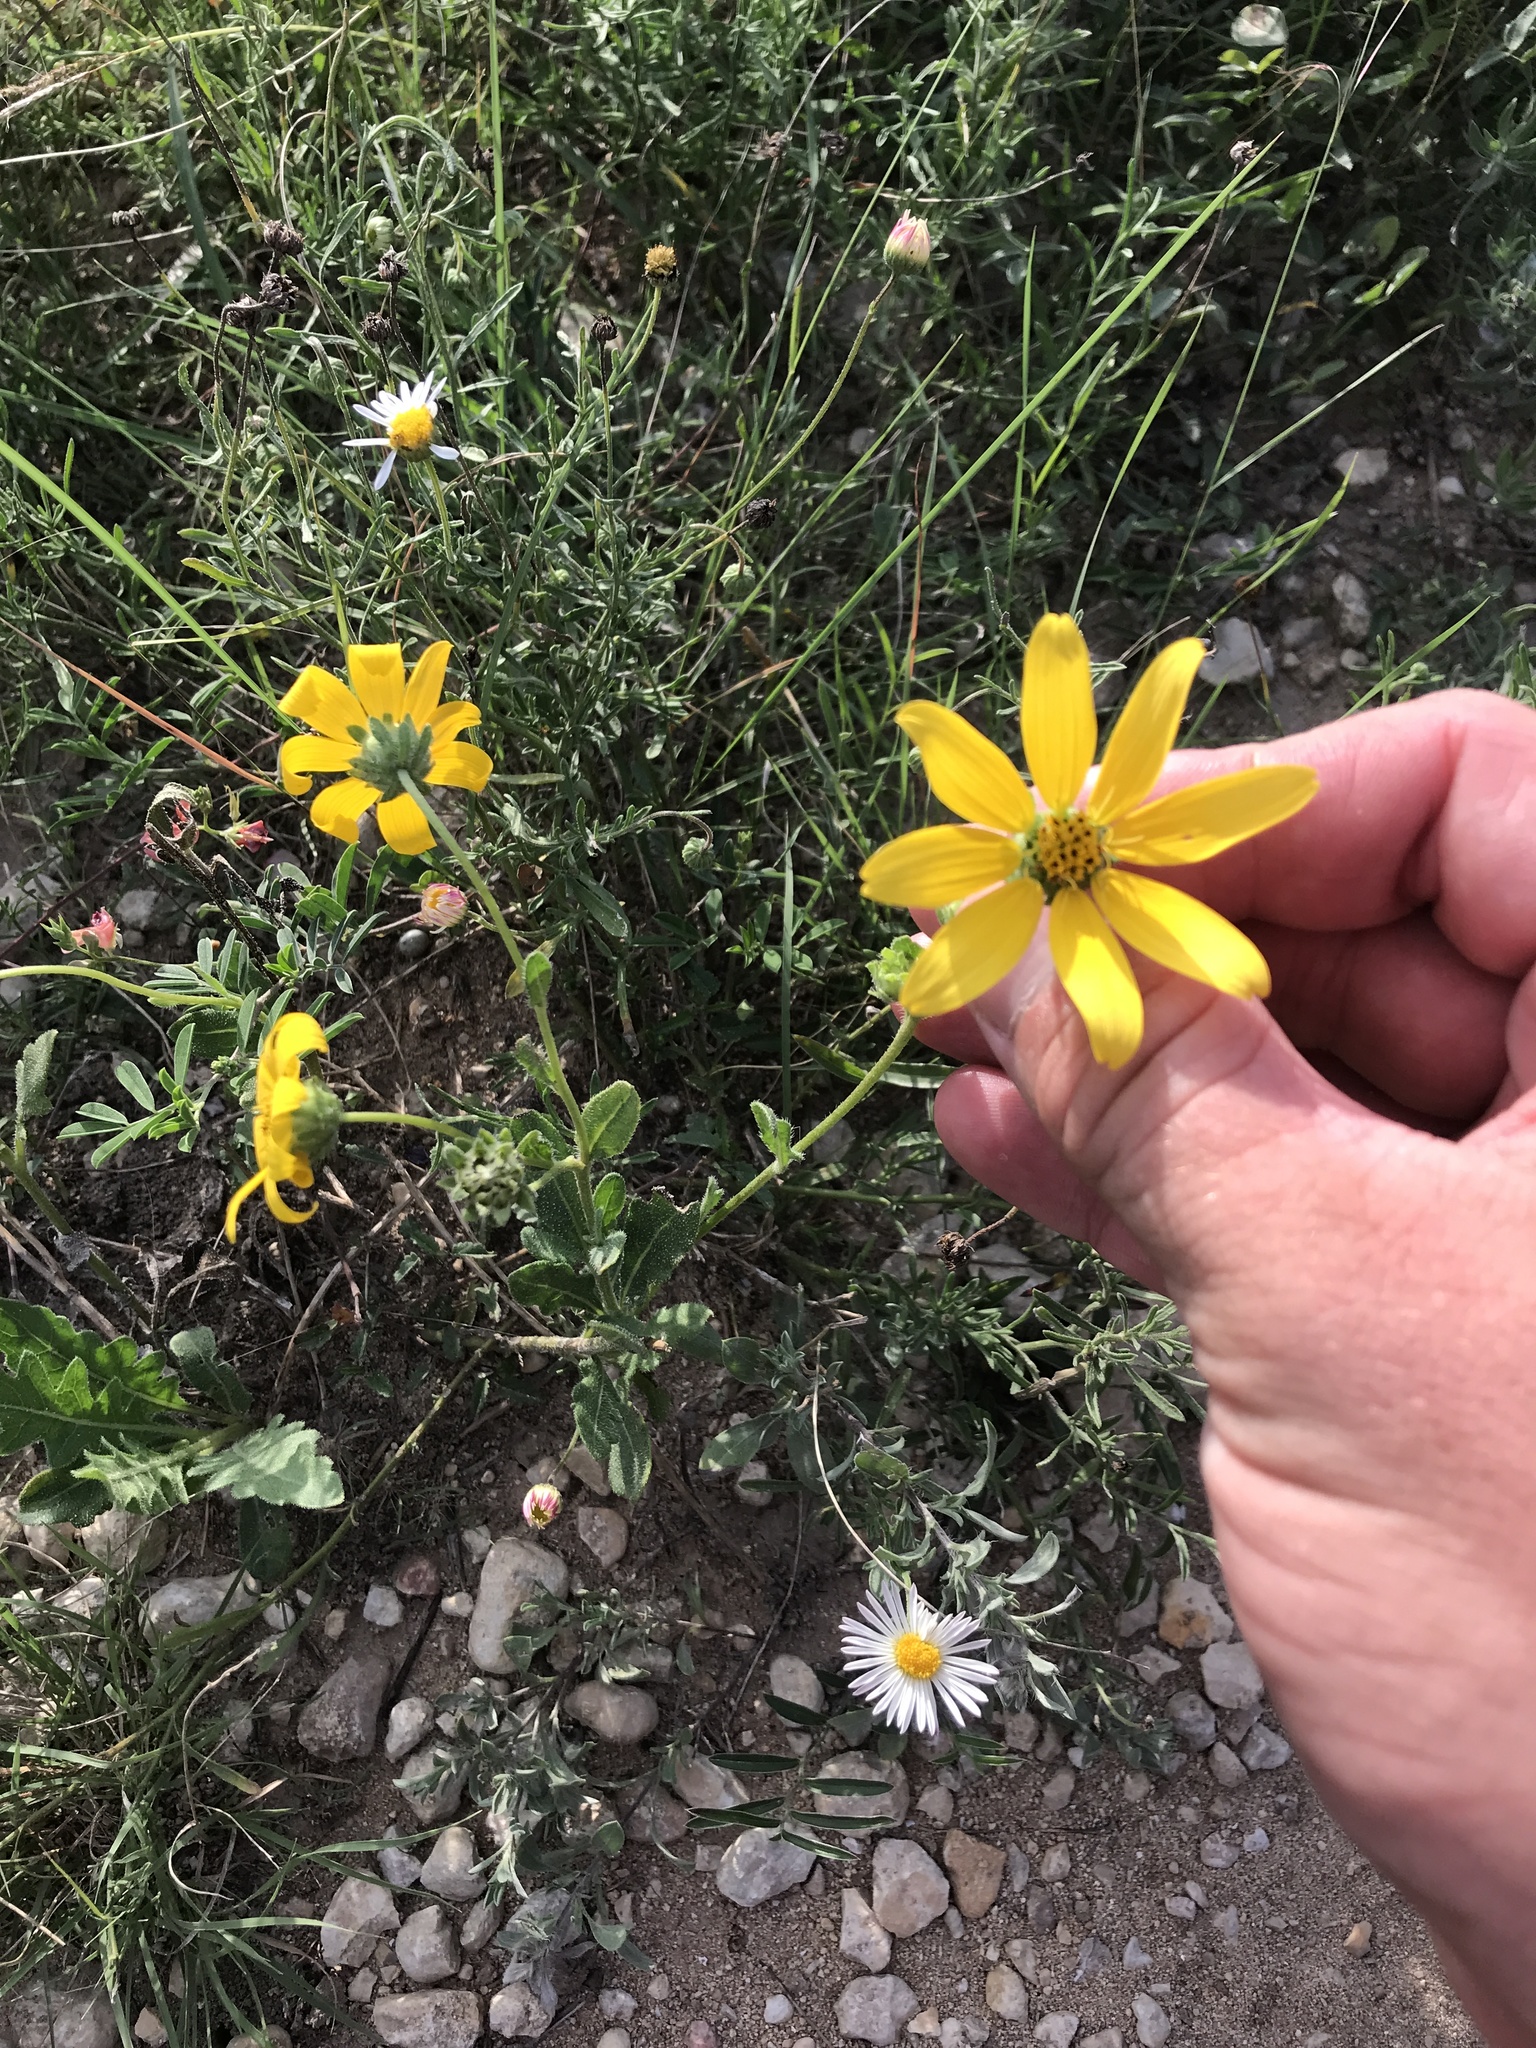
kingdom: Plantae
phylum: Tracheophyta
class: Magnoliopsida
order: Asterales
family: Asteraceae
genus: Engelmannia
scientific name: Engelmannia peristenia
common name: Engelmann's daisy
